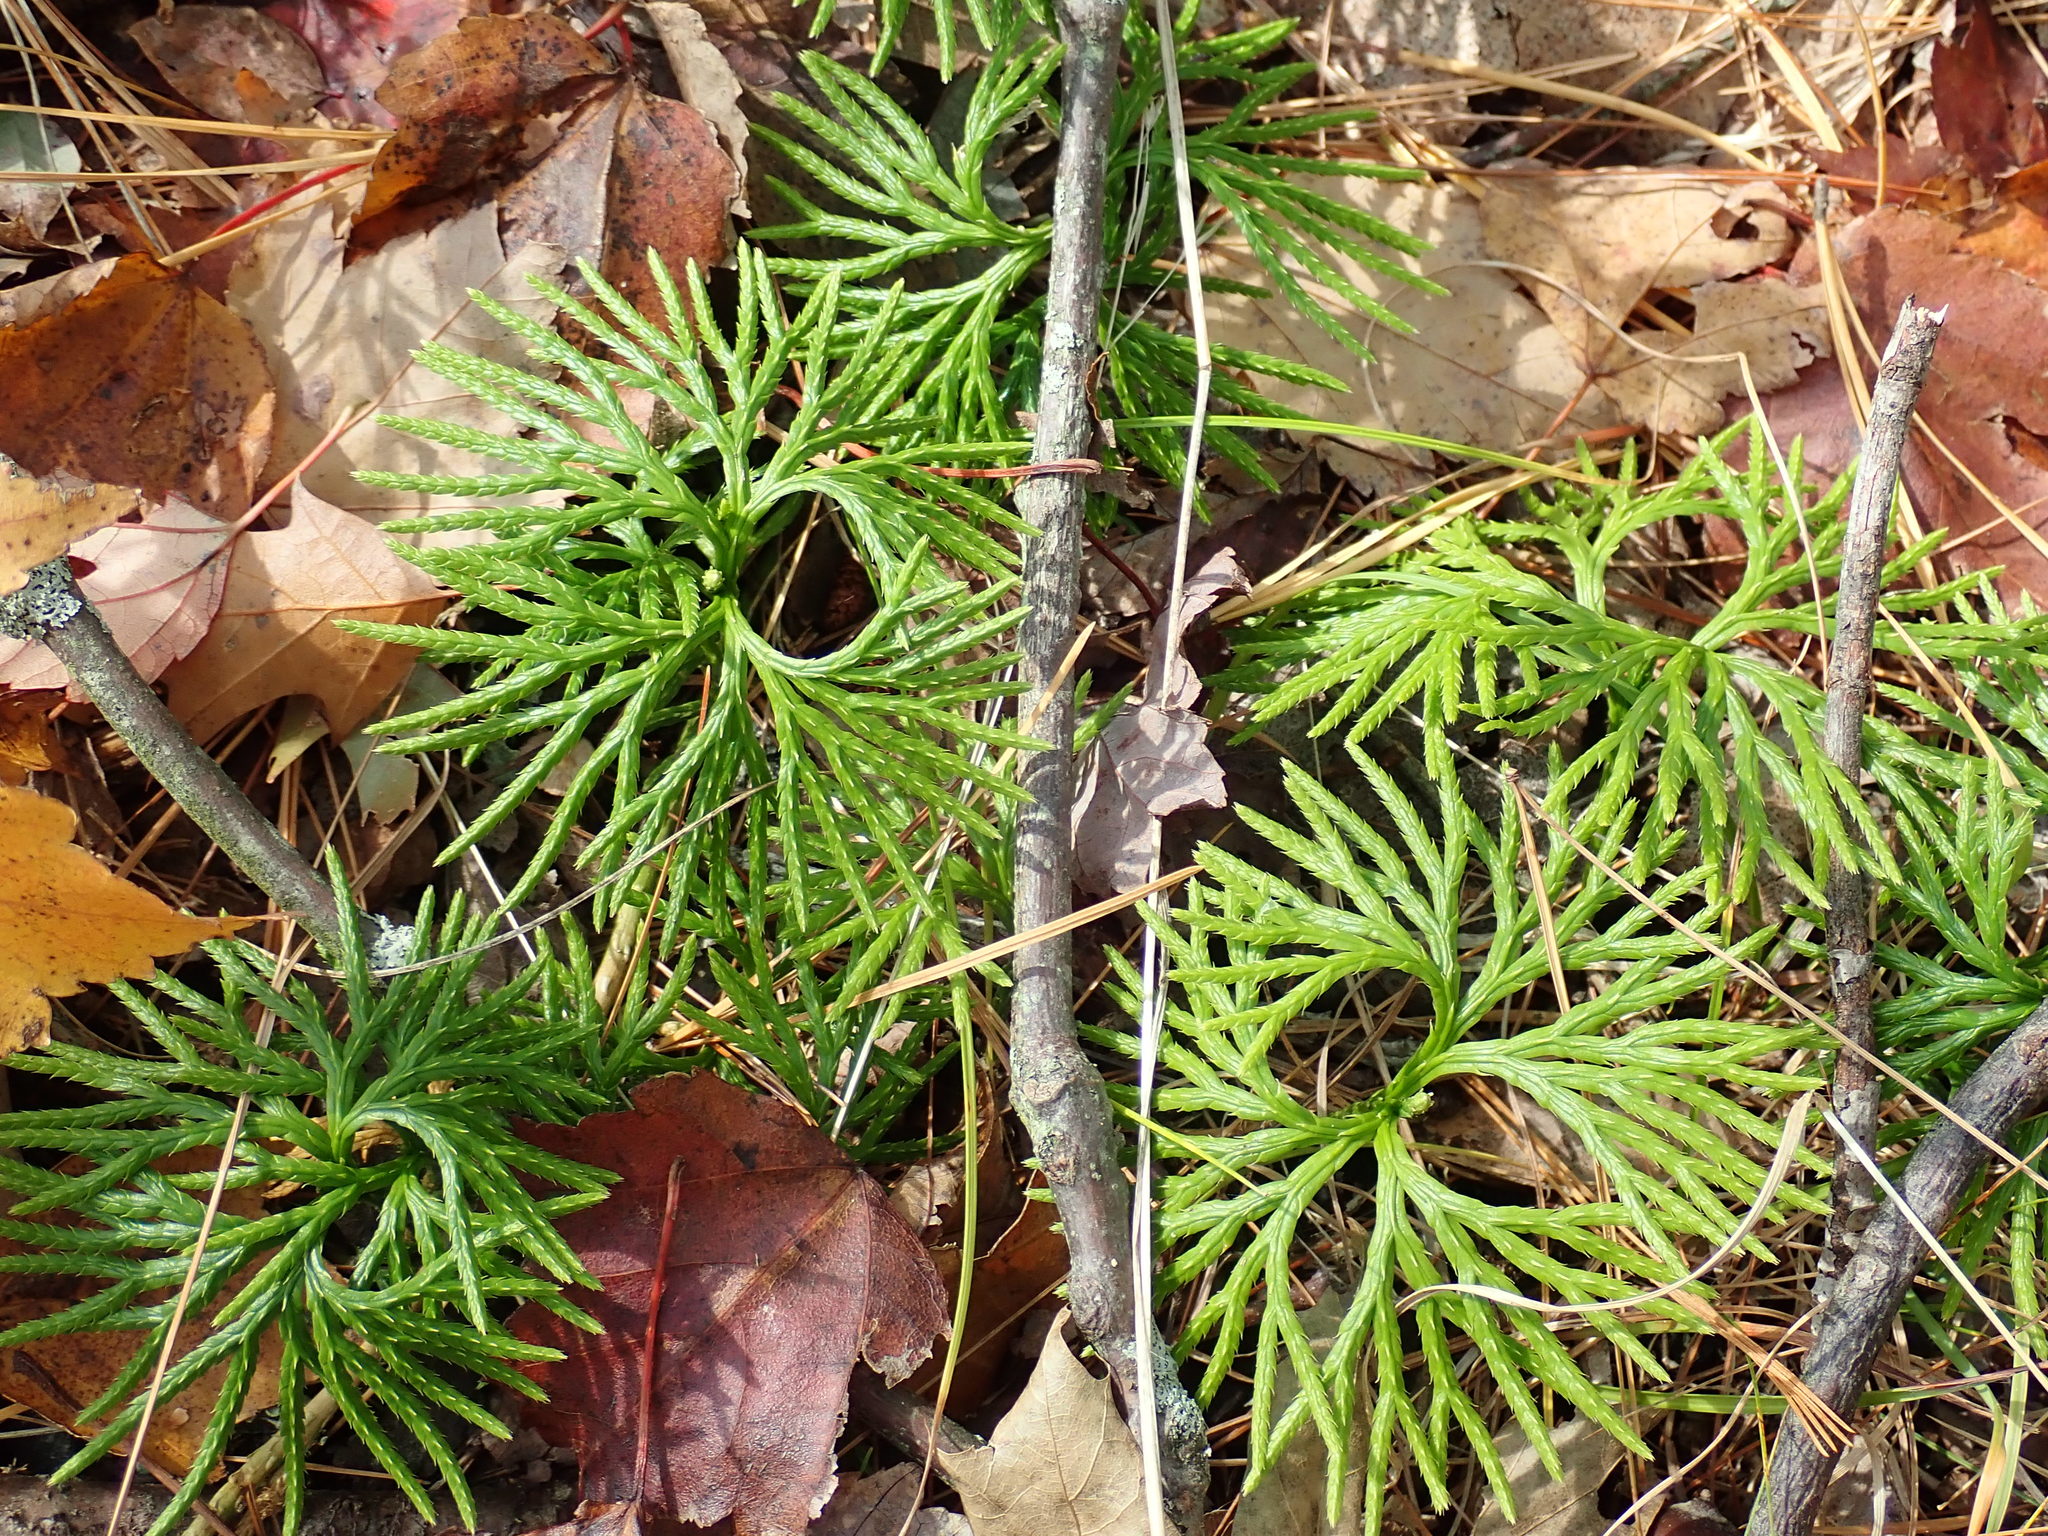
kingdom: Plantae
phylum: Tracheophyta
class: Lycopodiopsida
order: Lycopodiales
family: Lycopodiaceae
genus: Diphasiastrum
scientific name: Diphasiastrum digitatum
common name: Southern running-pine
